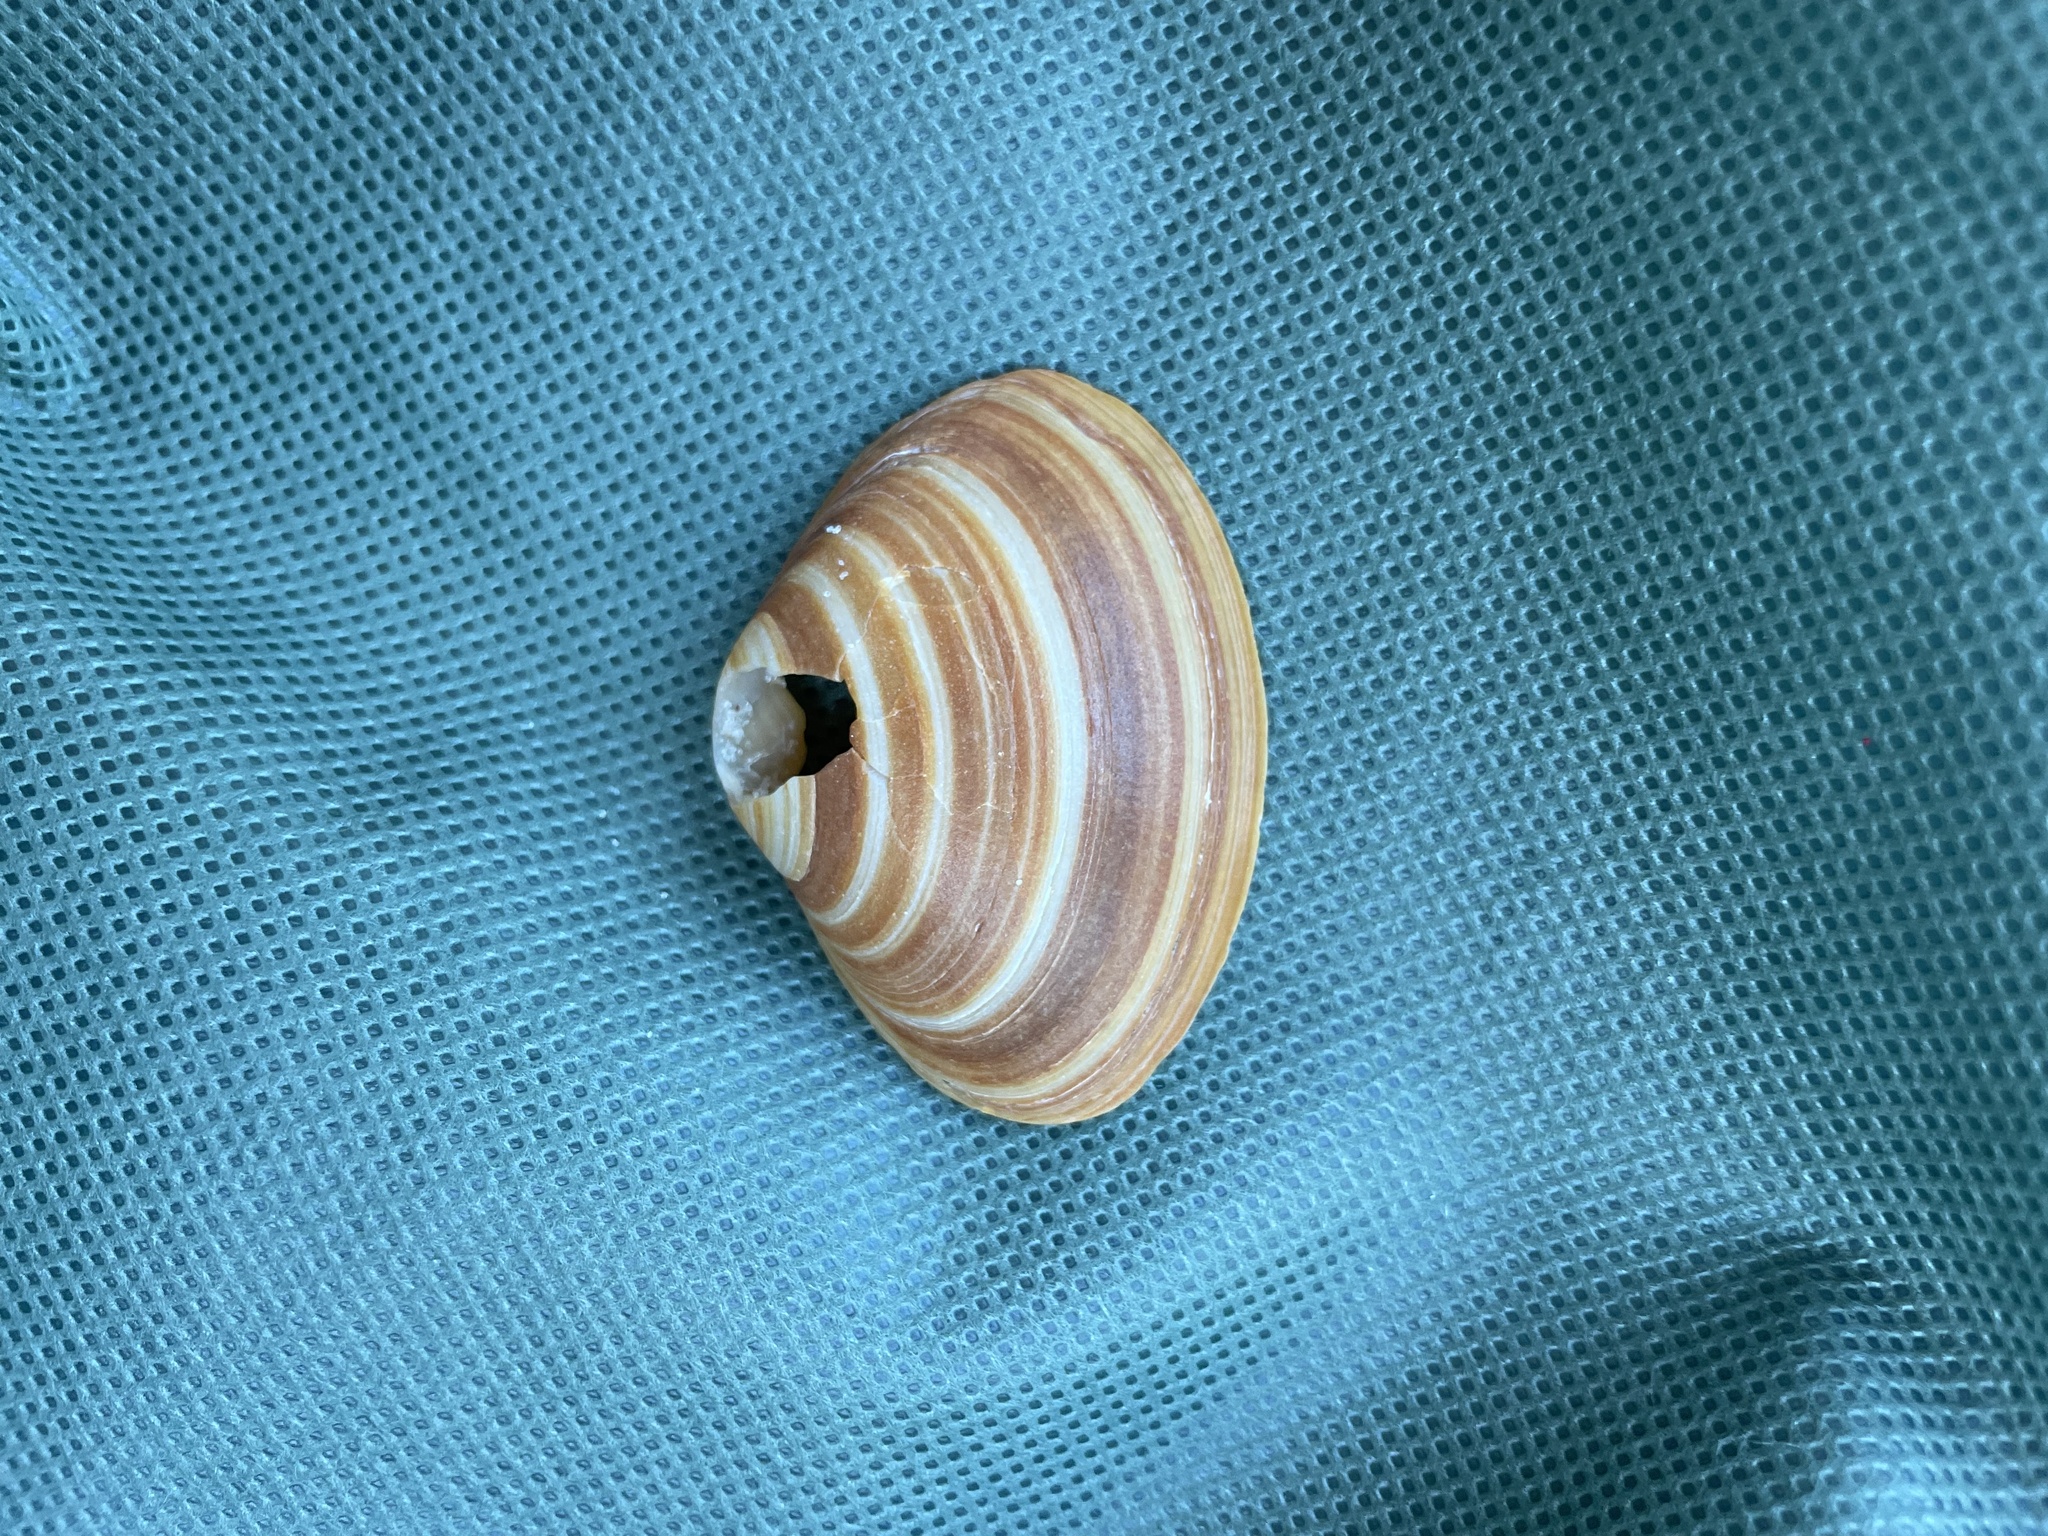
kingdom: Animalia
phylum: Mollusca
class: Bivalvia
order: Venerida
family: Mactridae
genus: Spisula
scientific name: Spisula solidissima
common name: Atlantic surf clam
